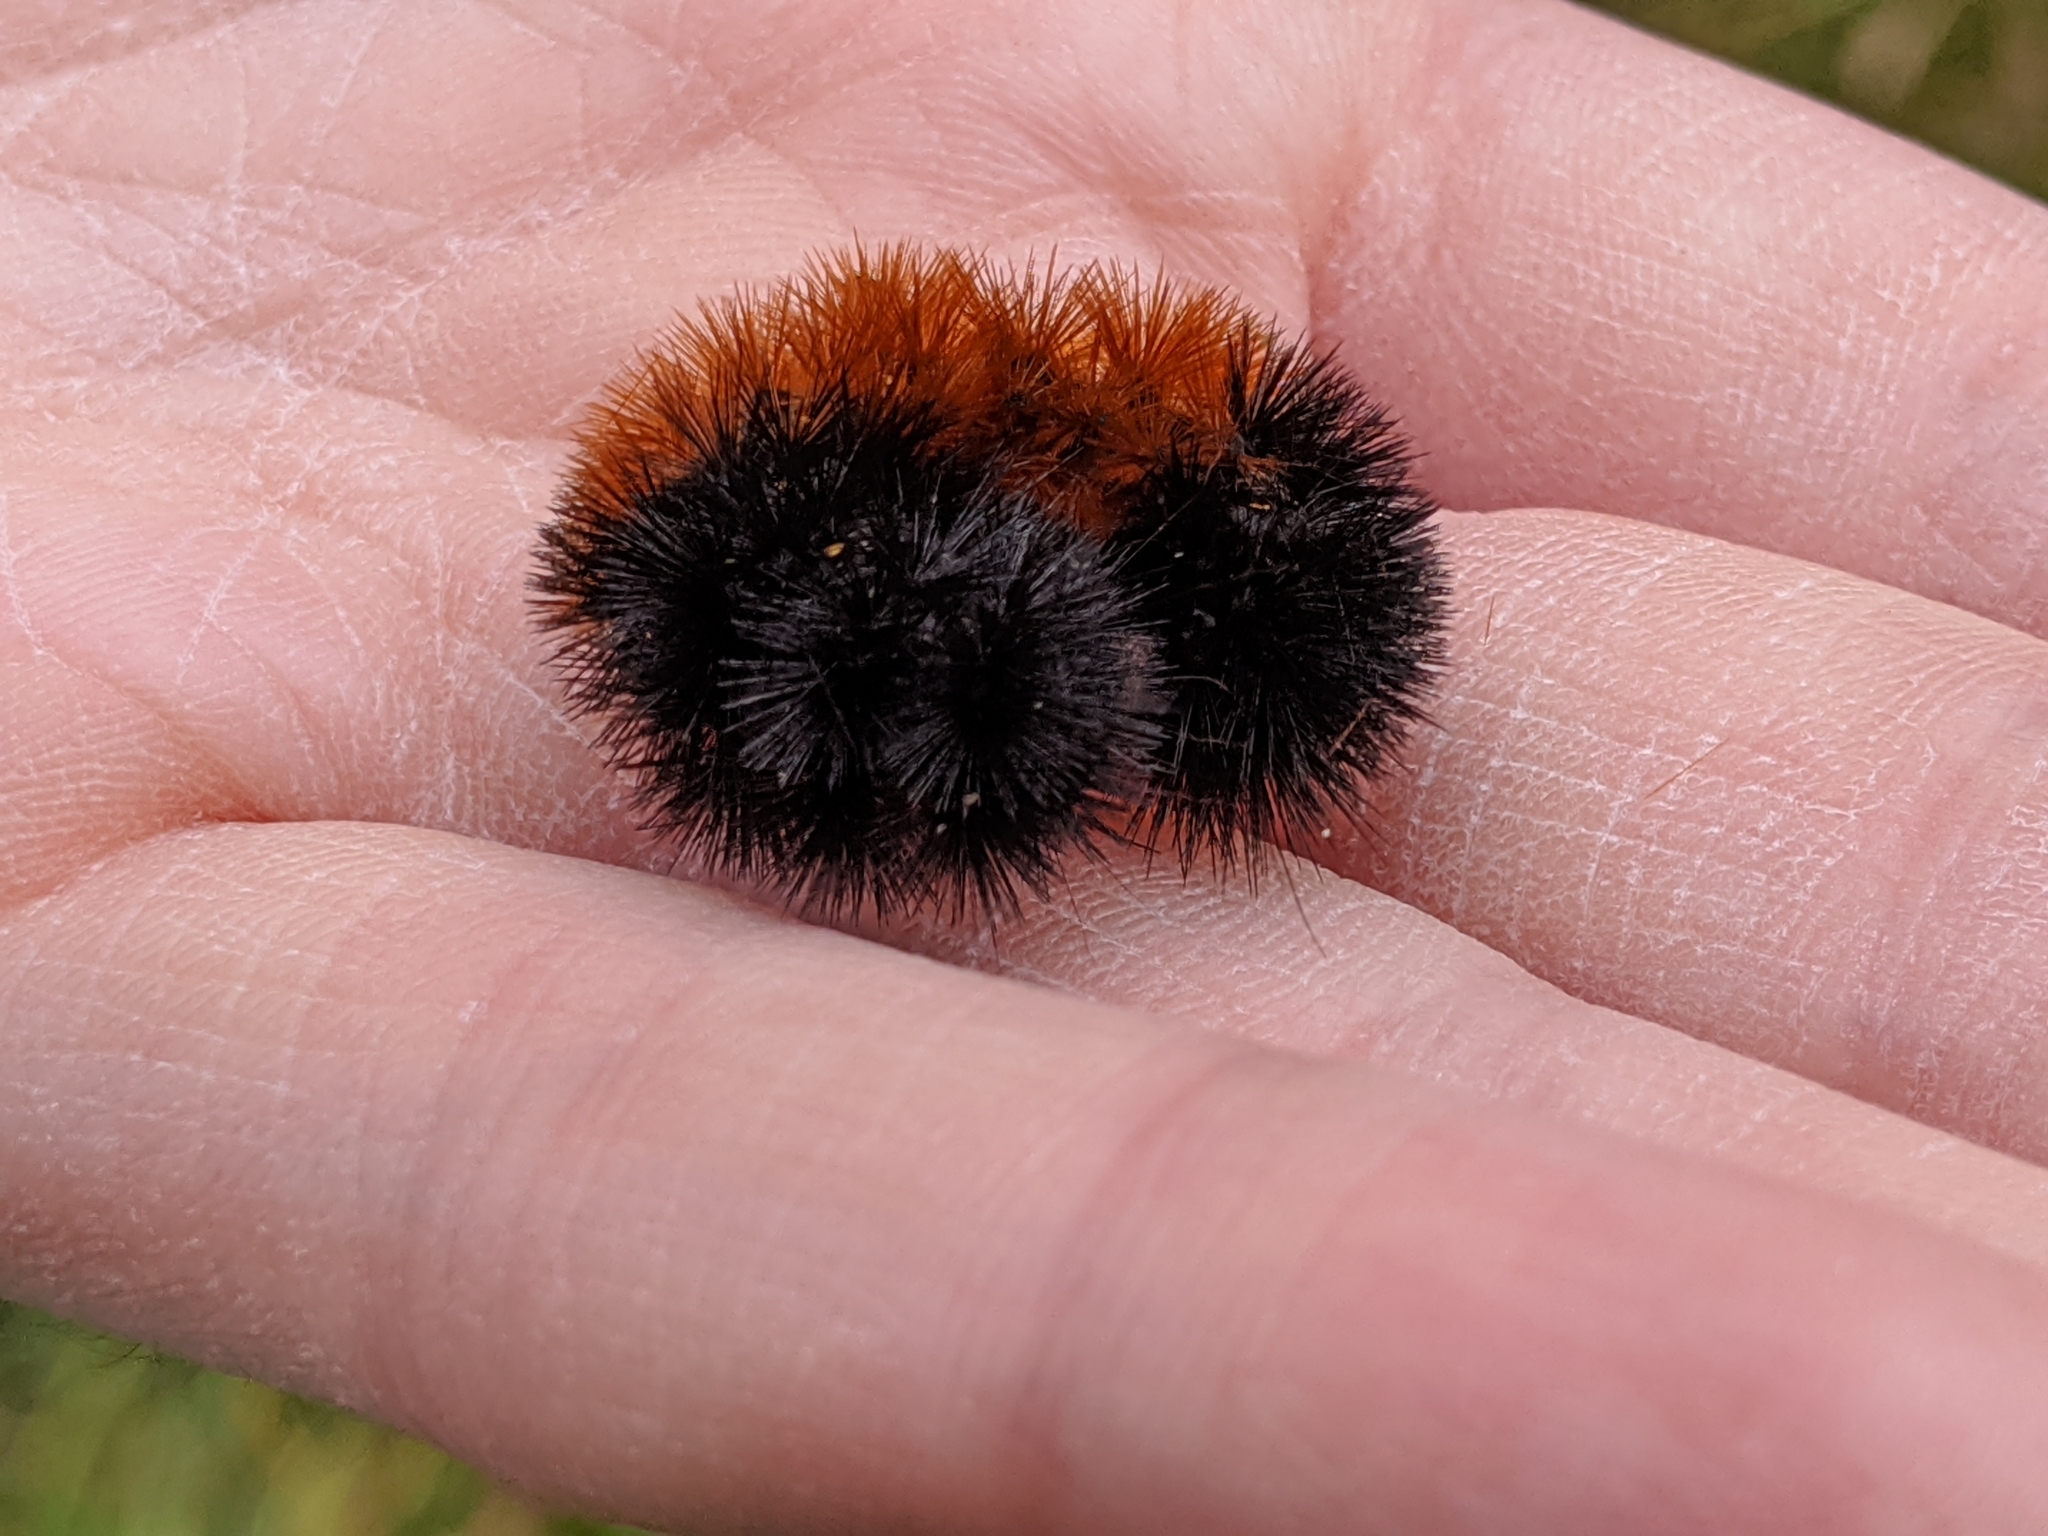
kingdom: Animalia
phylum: Arthropoda
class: Insecta
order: Lepidoptera
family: Erebidae
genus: Pyrrharctia
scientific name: Pyrrharctia isabella
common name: Isabella tiger moth
